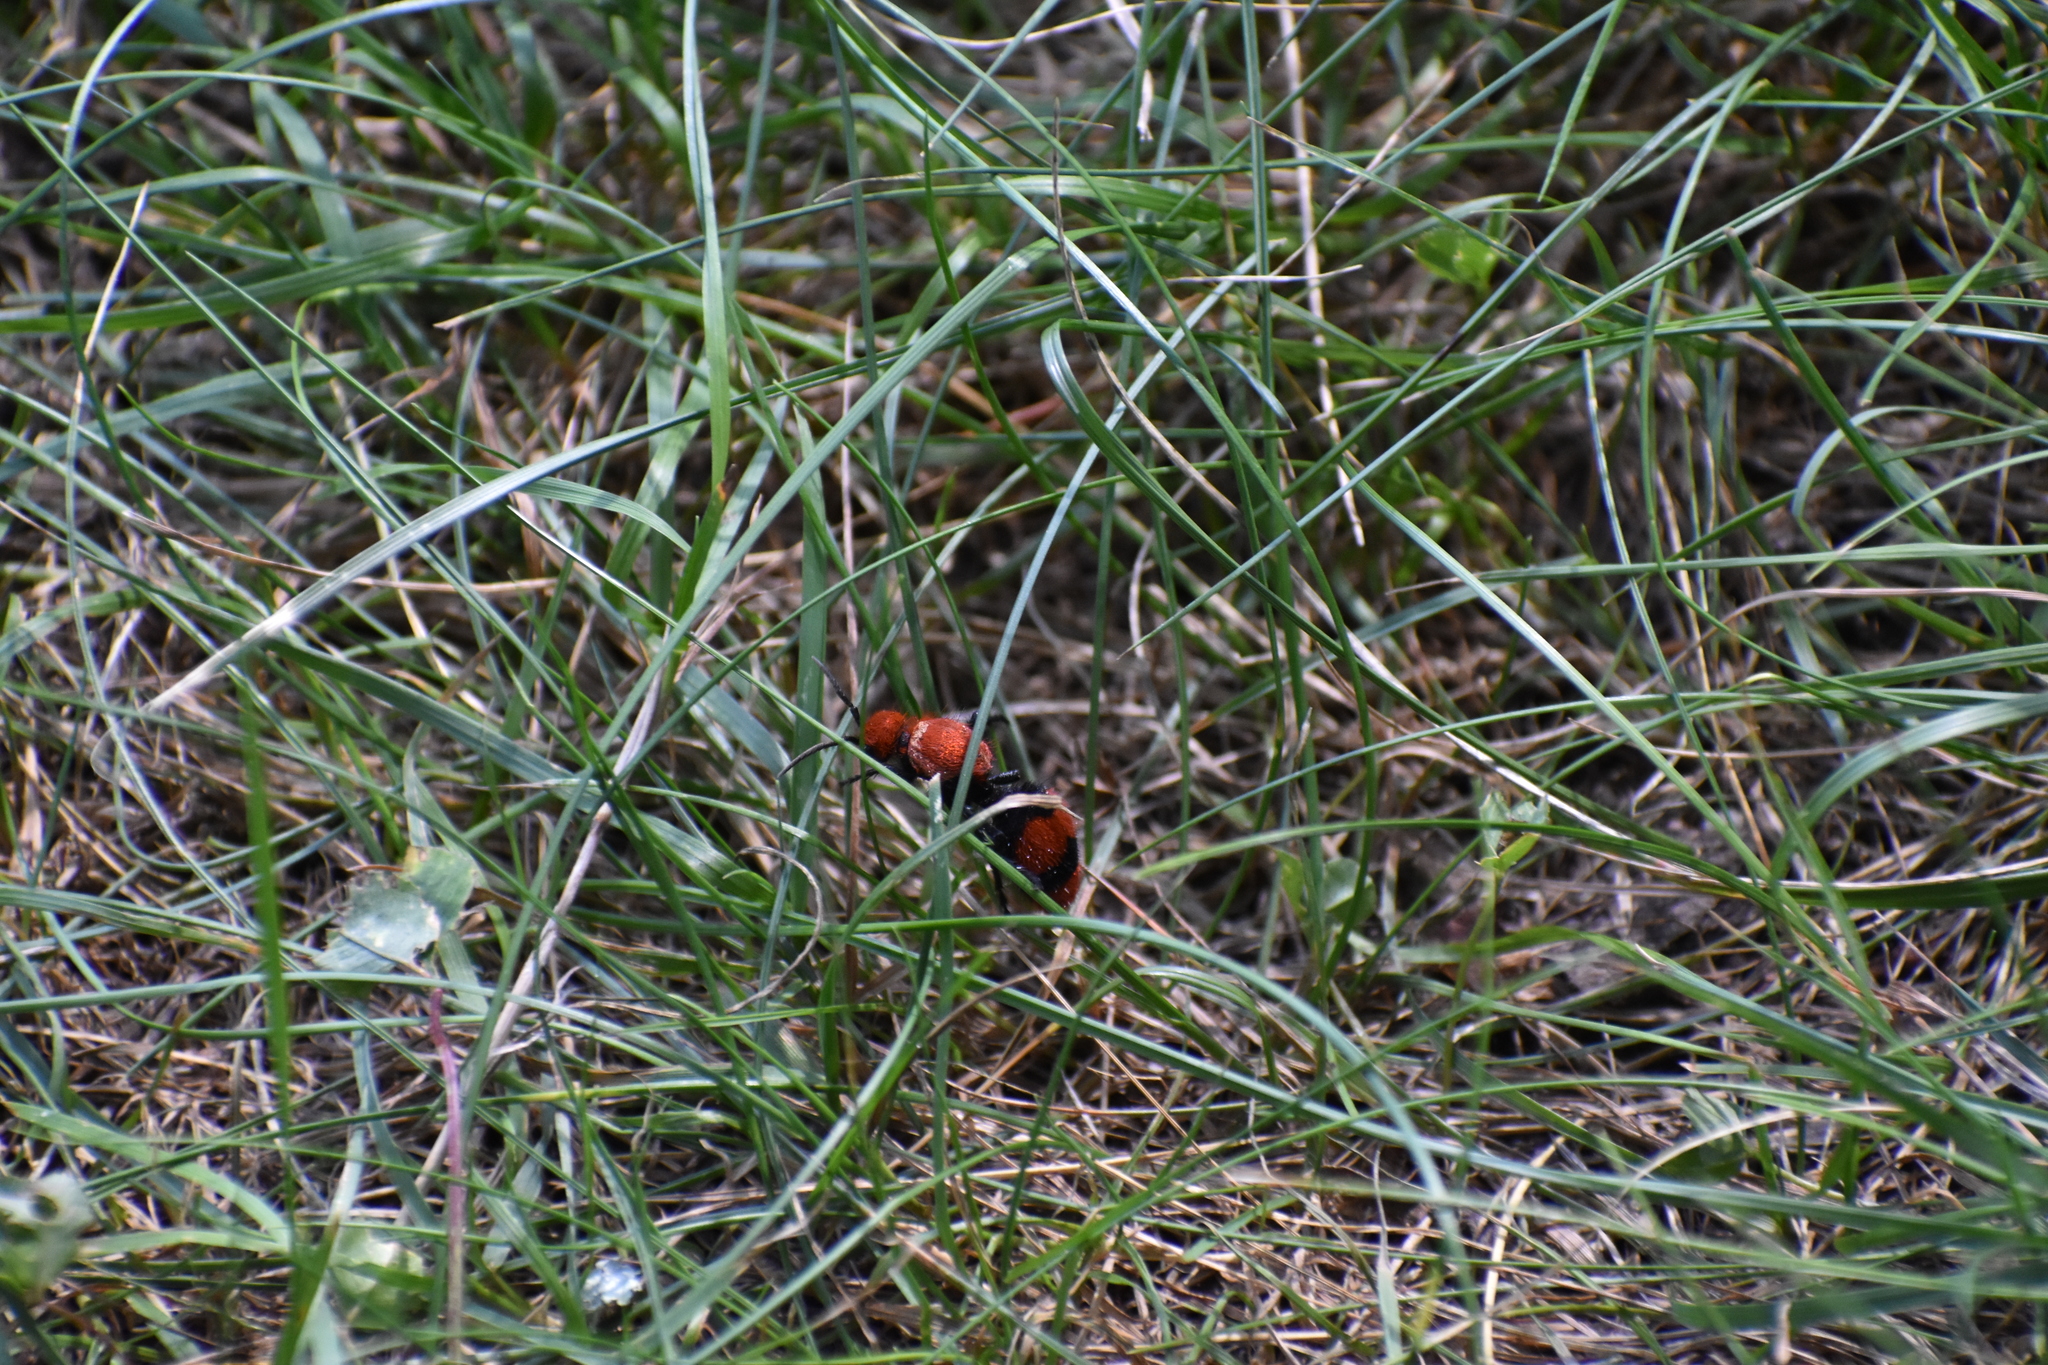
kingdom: Animalia
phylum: Arthropoda
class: Insecta
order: Hymenoptera
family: Mutillidae
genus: Dasymutilla
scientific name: Dasymutilla occidentalis
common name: Common eastern velvet ant
